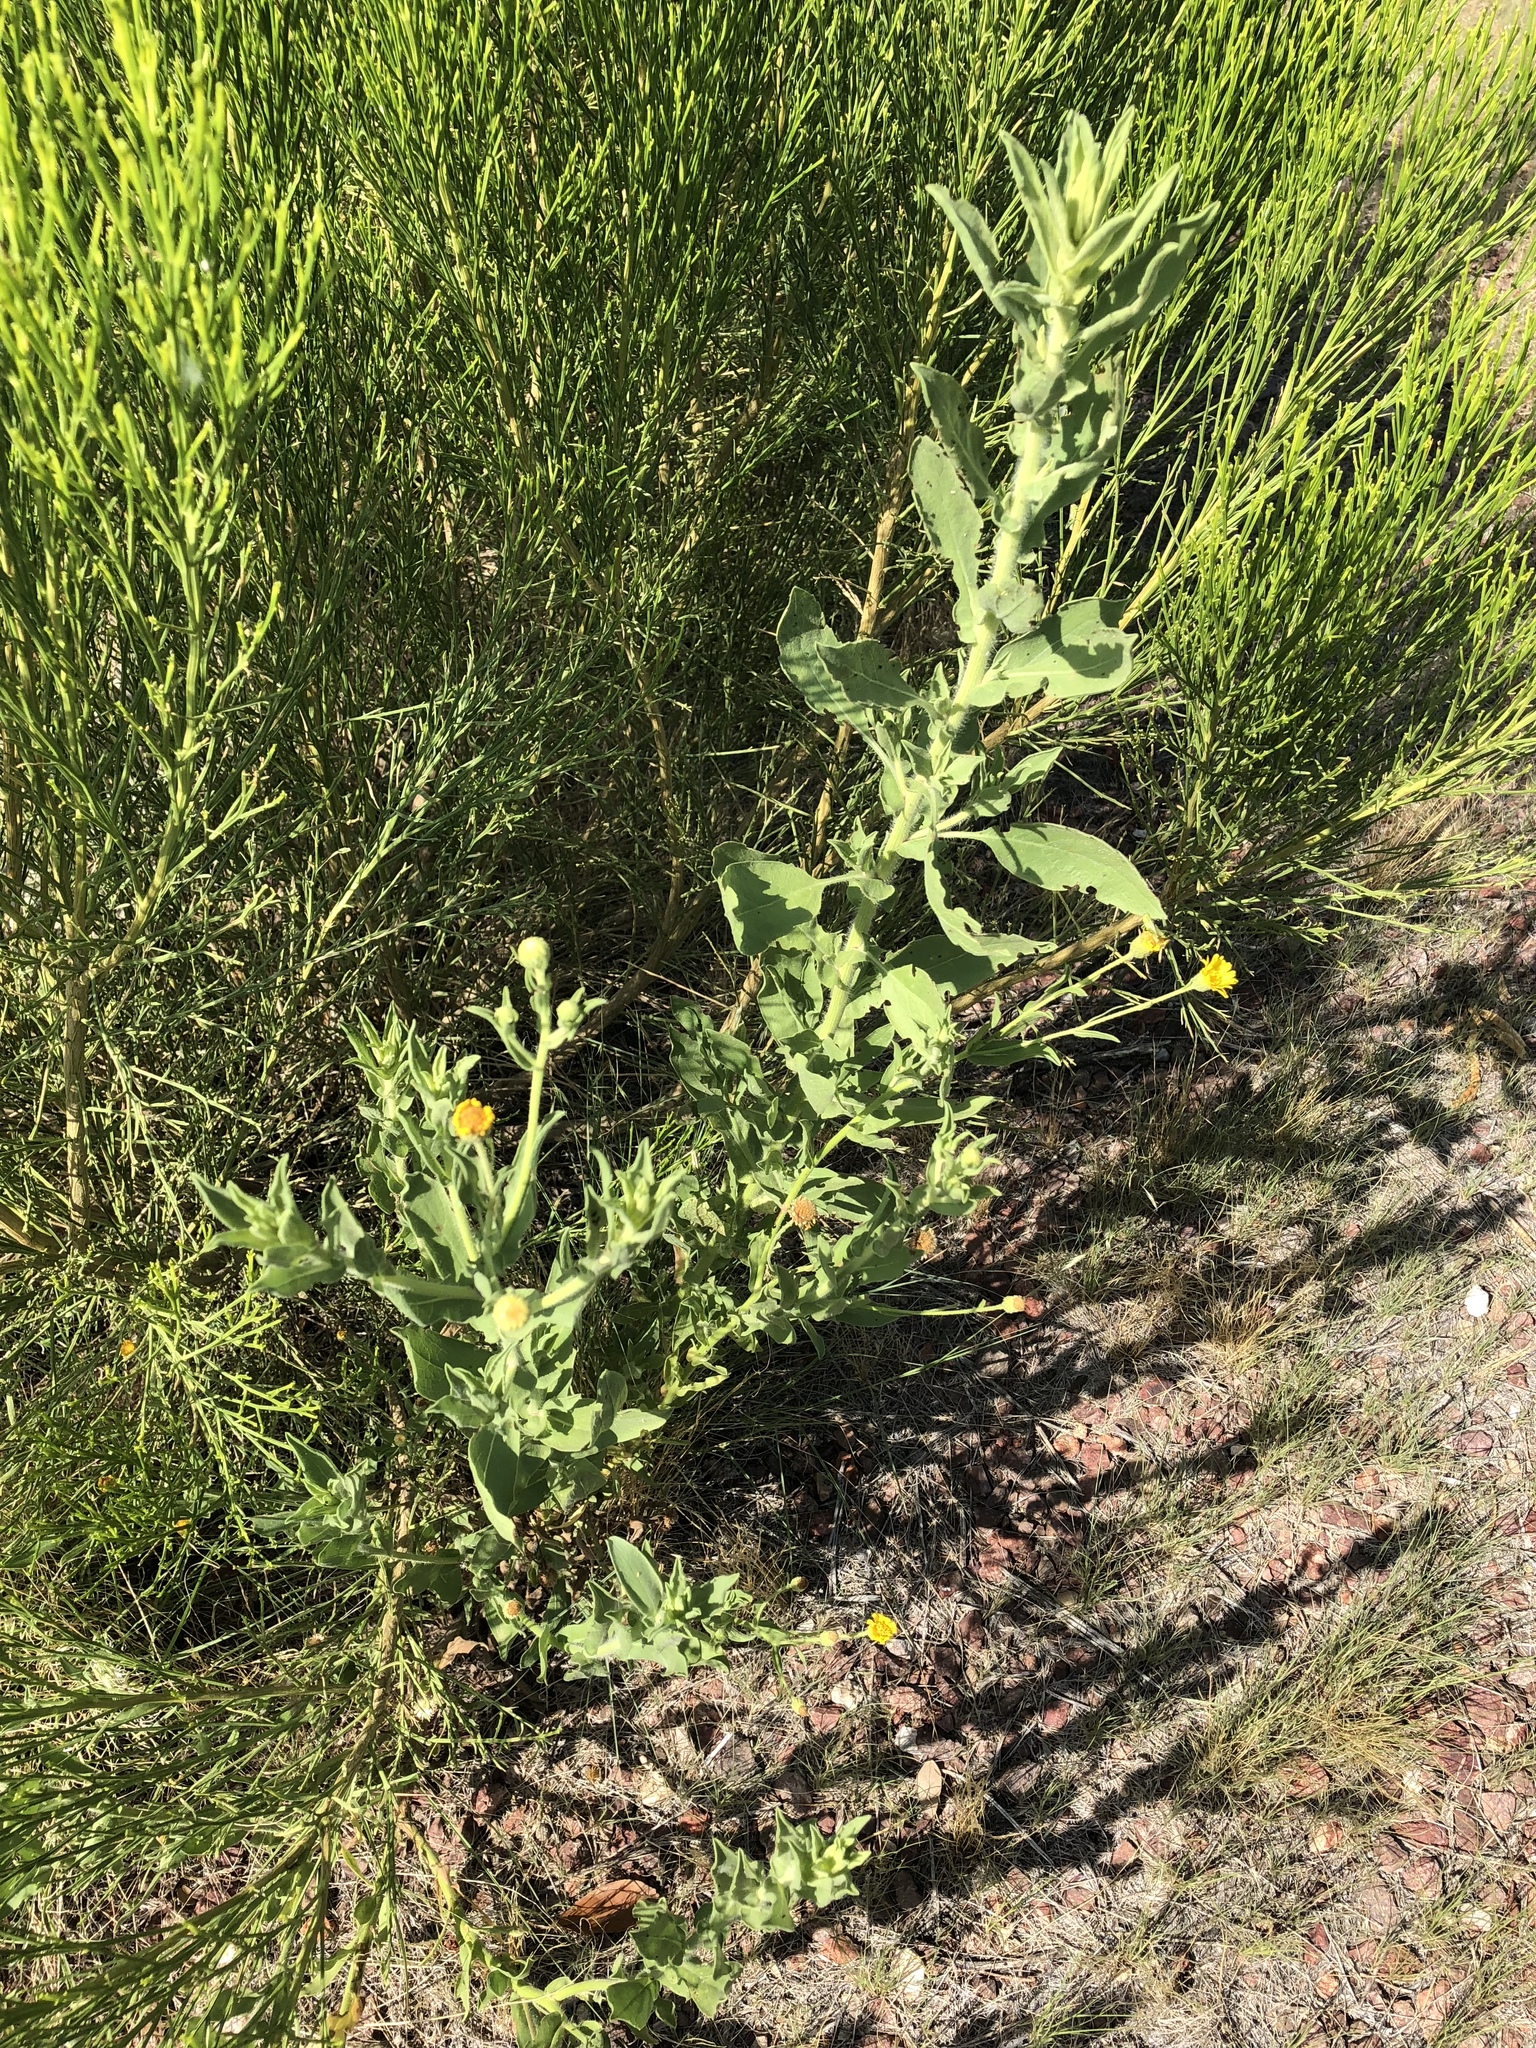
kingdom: Plantae
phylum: Tracheophyta
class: Magnoliopsida
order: Asterales
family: Asteraceae
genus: Heterotheca
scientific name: Heterotheca subaxillaris
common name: Camphorweed
